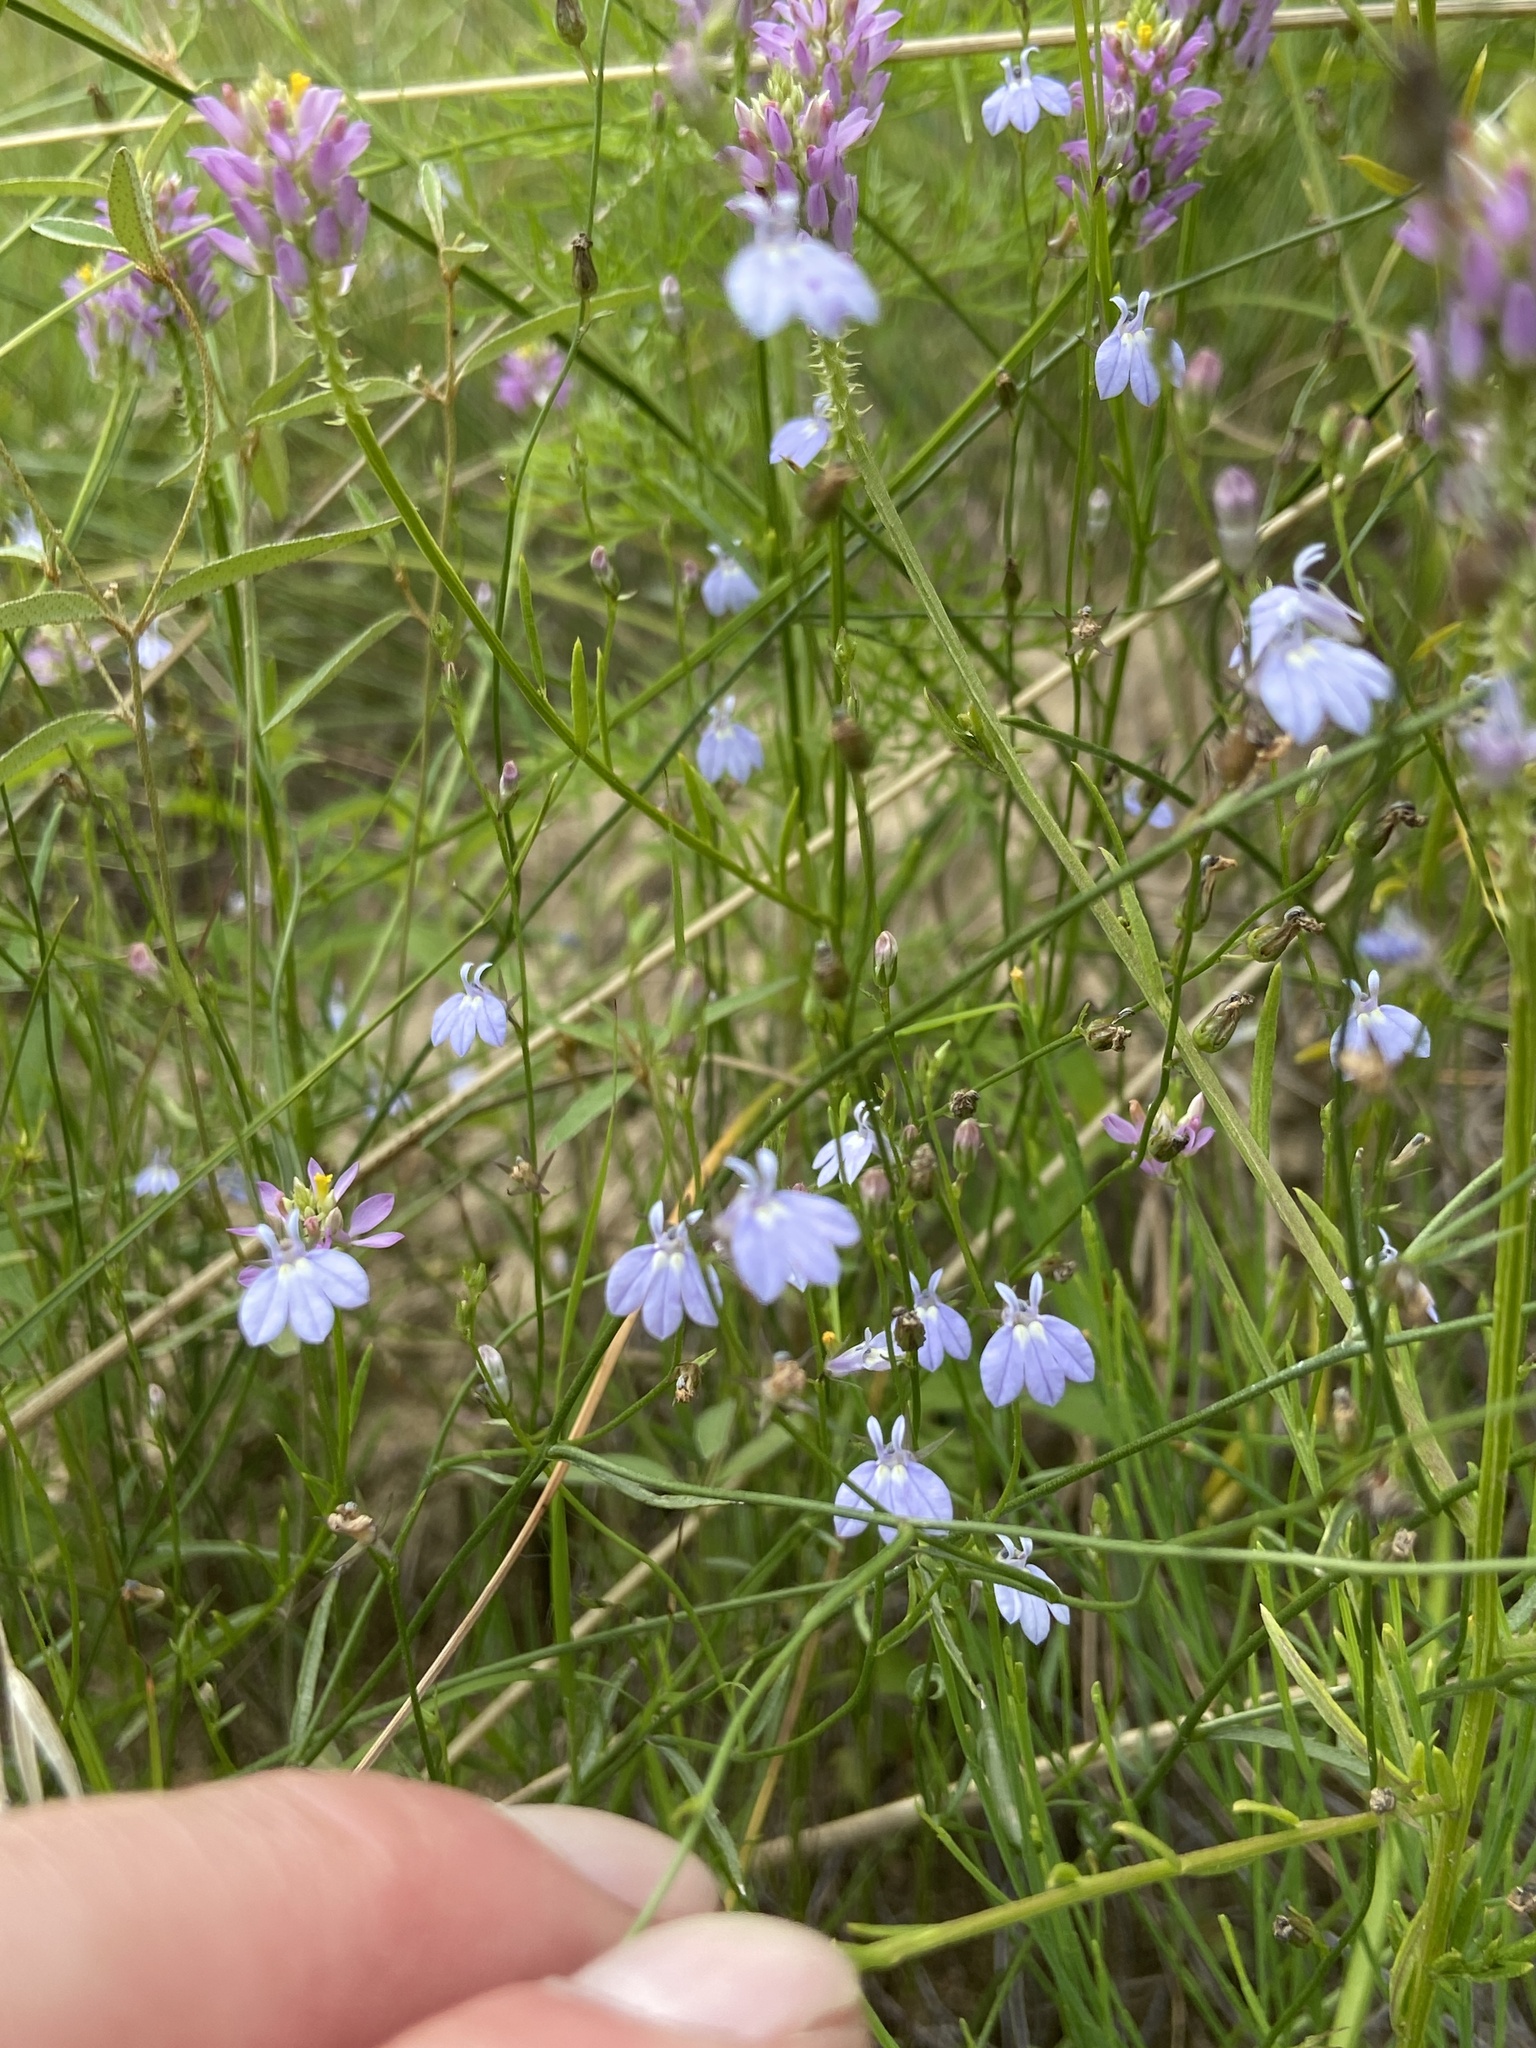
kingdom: Plantae
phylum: Tracheophyta
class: Magnoliopsida
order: Asterales
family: Campanulaceae
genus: Lobelia
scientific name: Lobelia nuttallii
